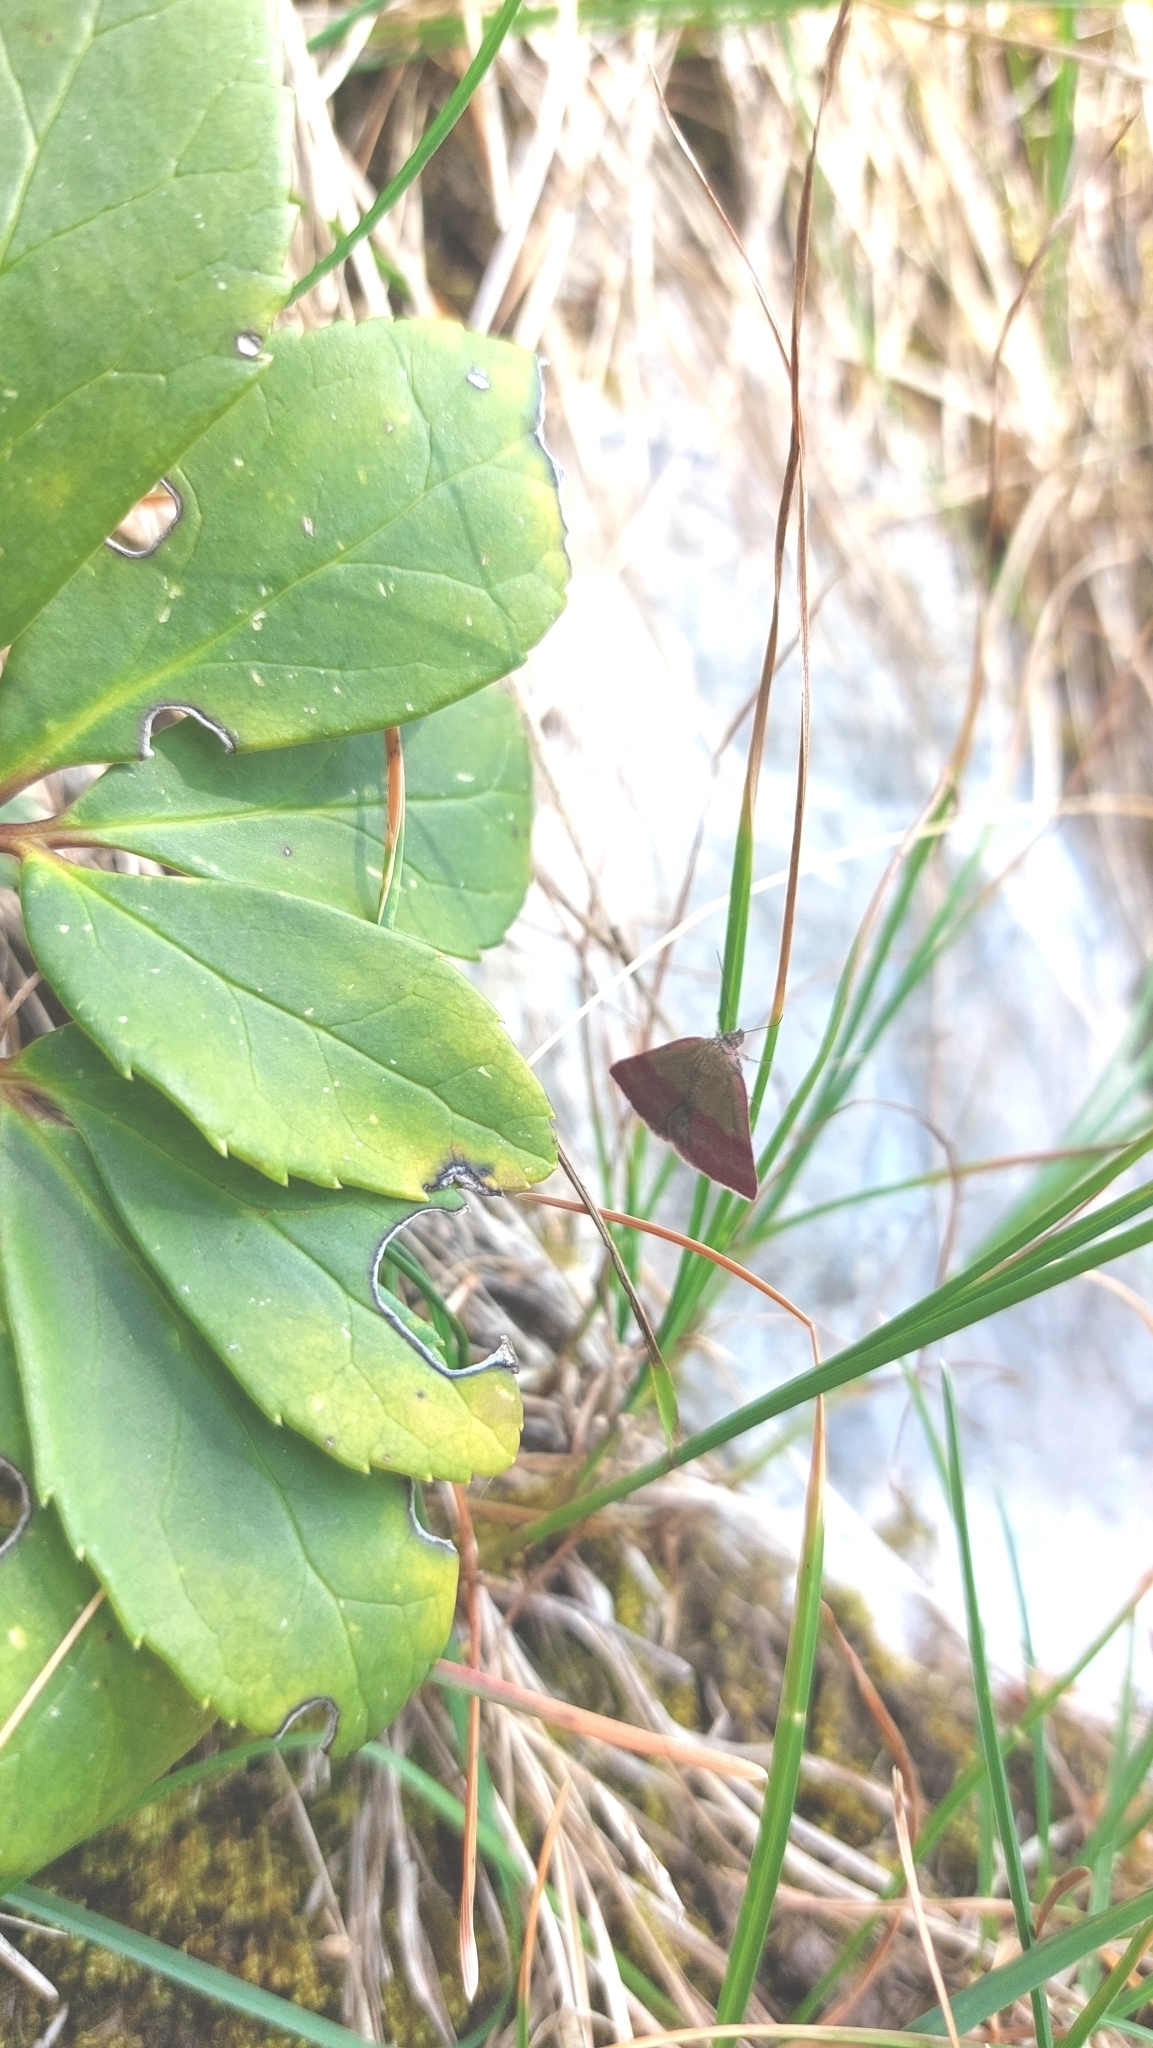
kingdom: Animalia
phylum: Arthropoda
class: Insecta
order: Lepidoptera
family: Erebidae
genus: Phytometra
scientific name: Phytometra viridaria
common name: Small purple-barred
